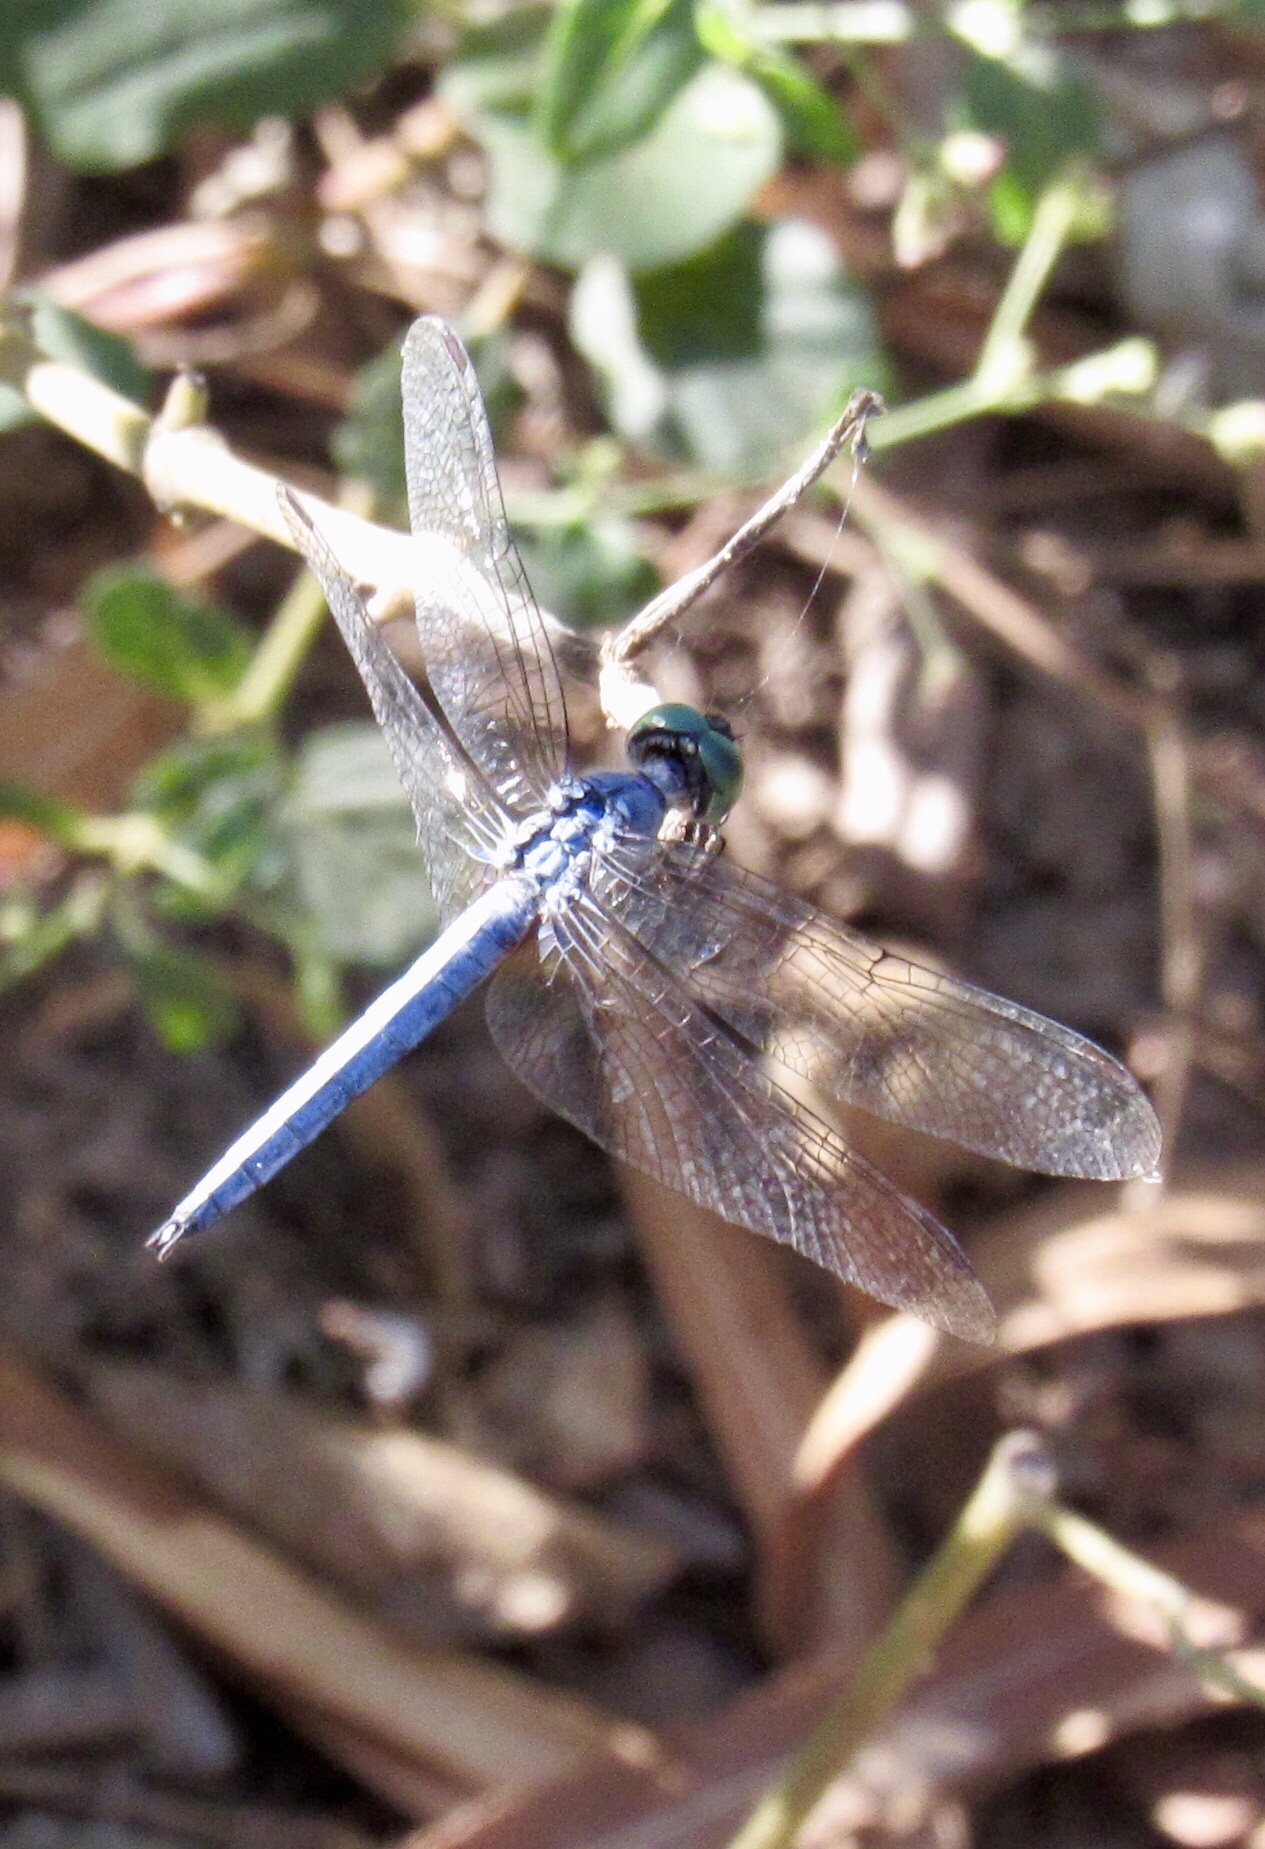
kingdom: Animalia
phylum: Arthropoda
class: Insecta
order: Odonata
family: Libellulidae
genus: Pachydiplax
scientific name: Pachydiplax longipennis
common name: Blue dasher
